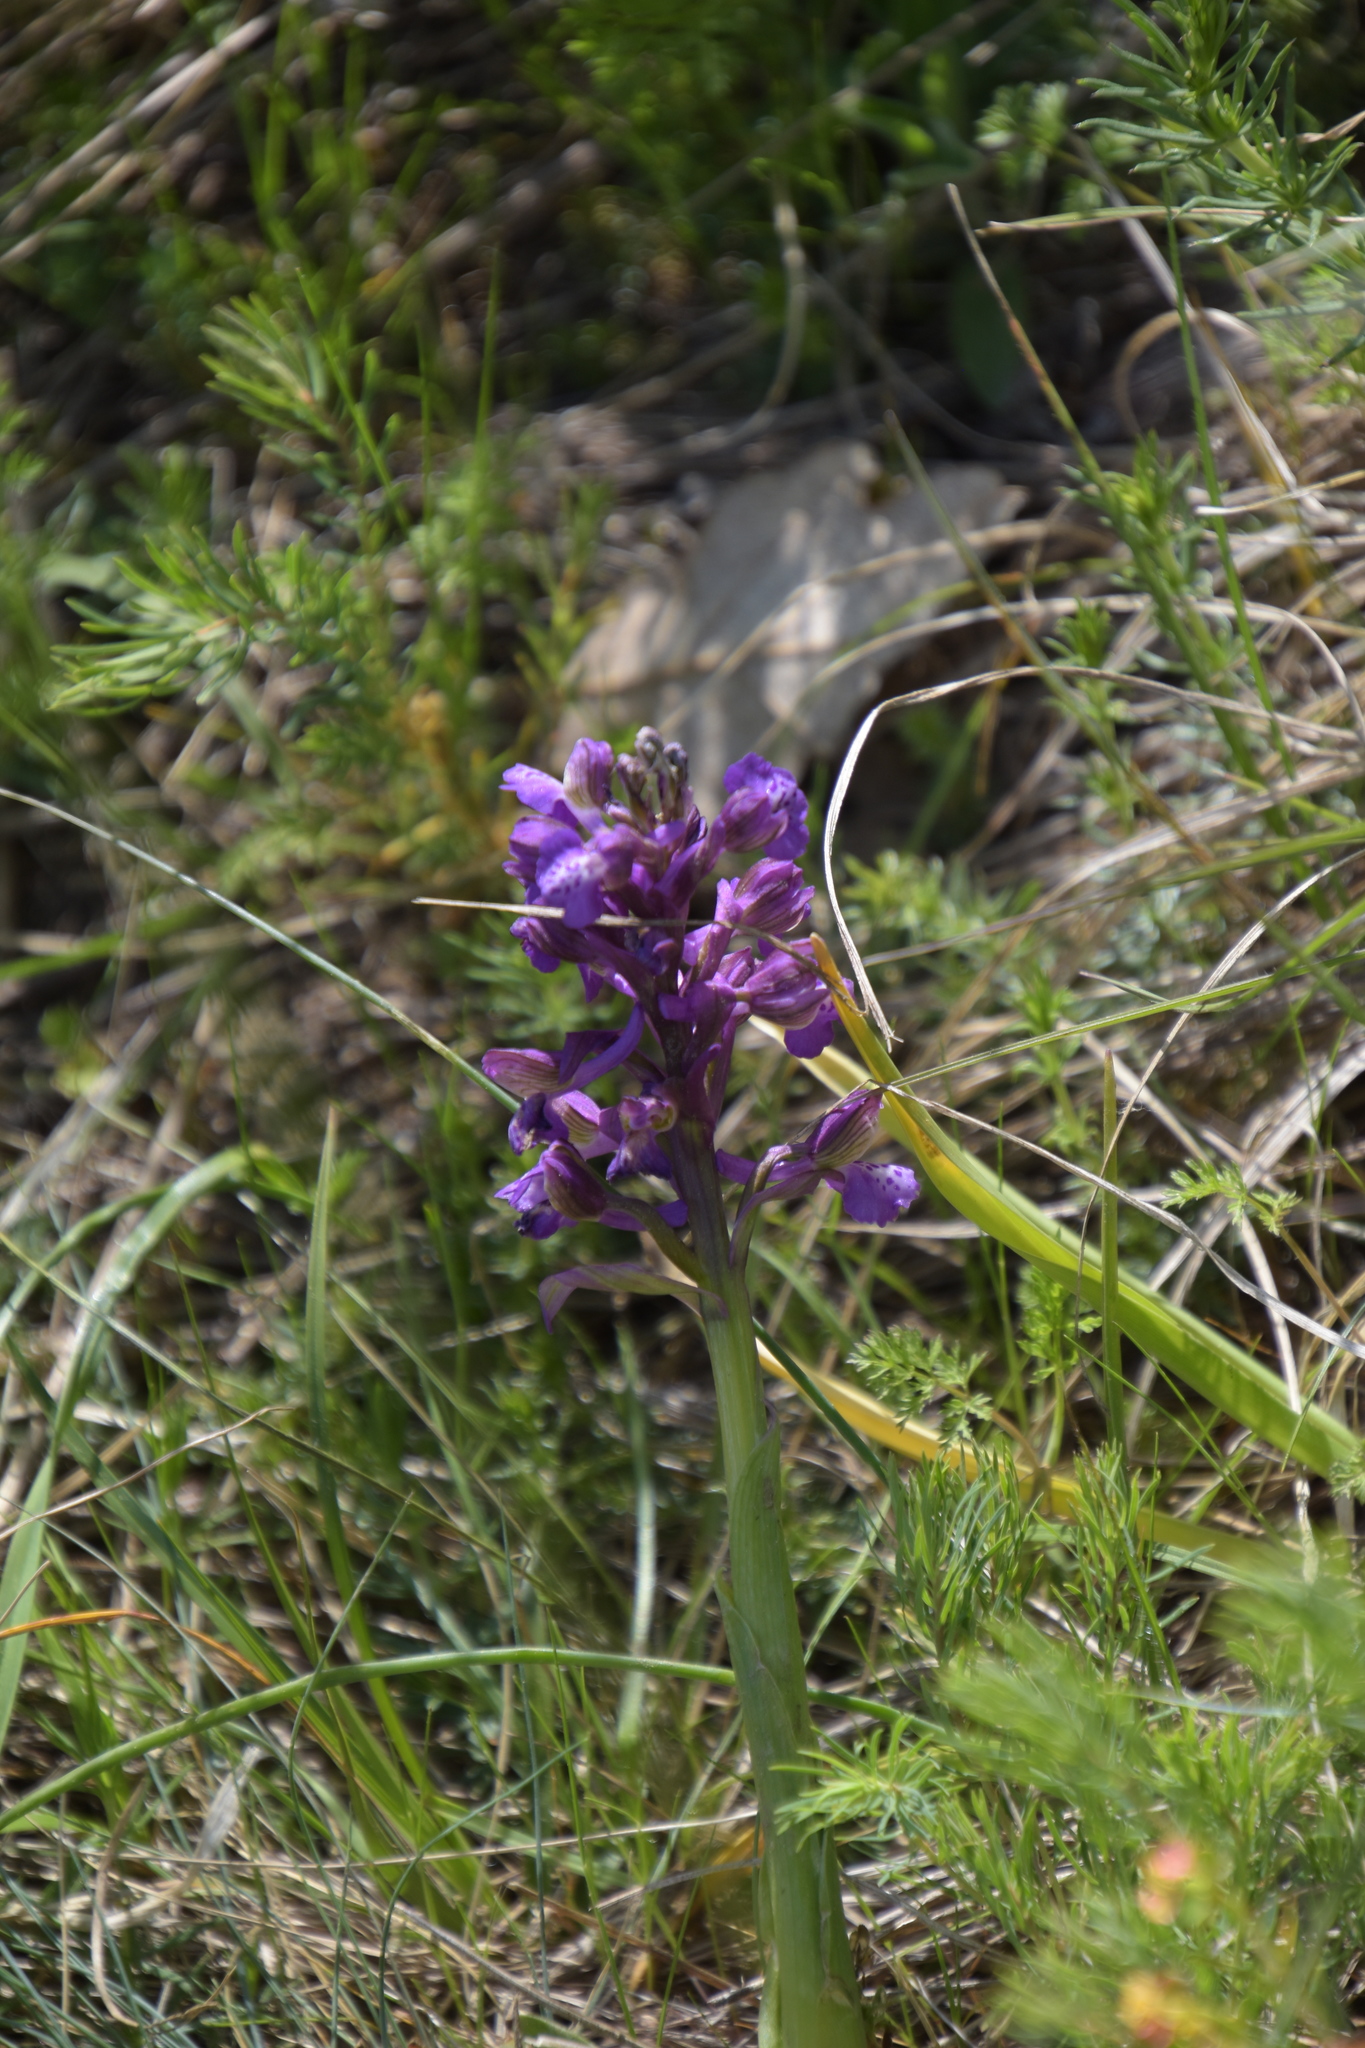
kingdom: Plantae
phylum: Tracheophyta
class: Liliopsida
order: Asparagales
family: Orchidaceae
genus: Anacamptis
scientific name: Anacamptis morio
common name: Green-winged orchid
